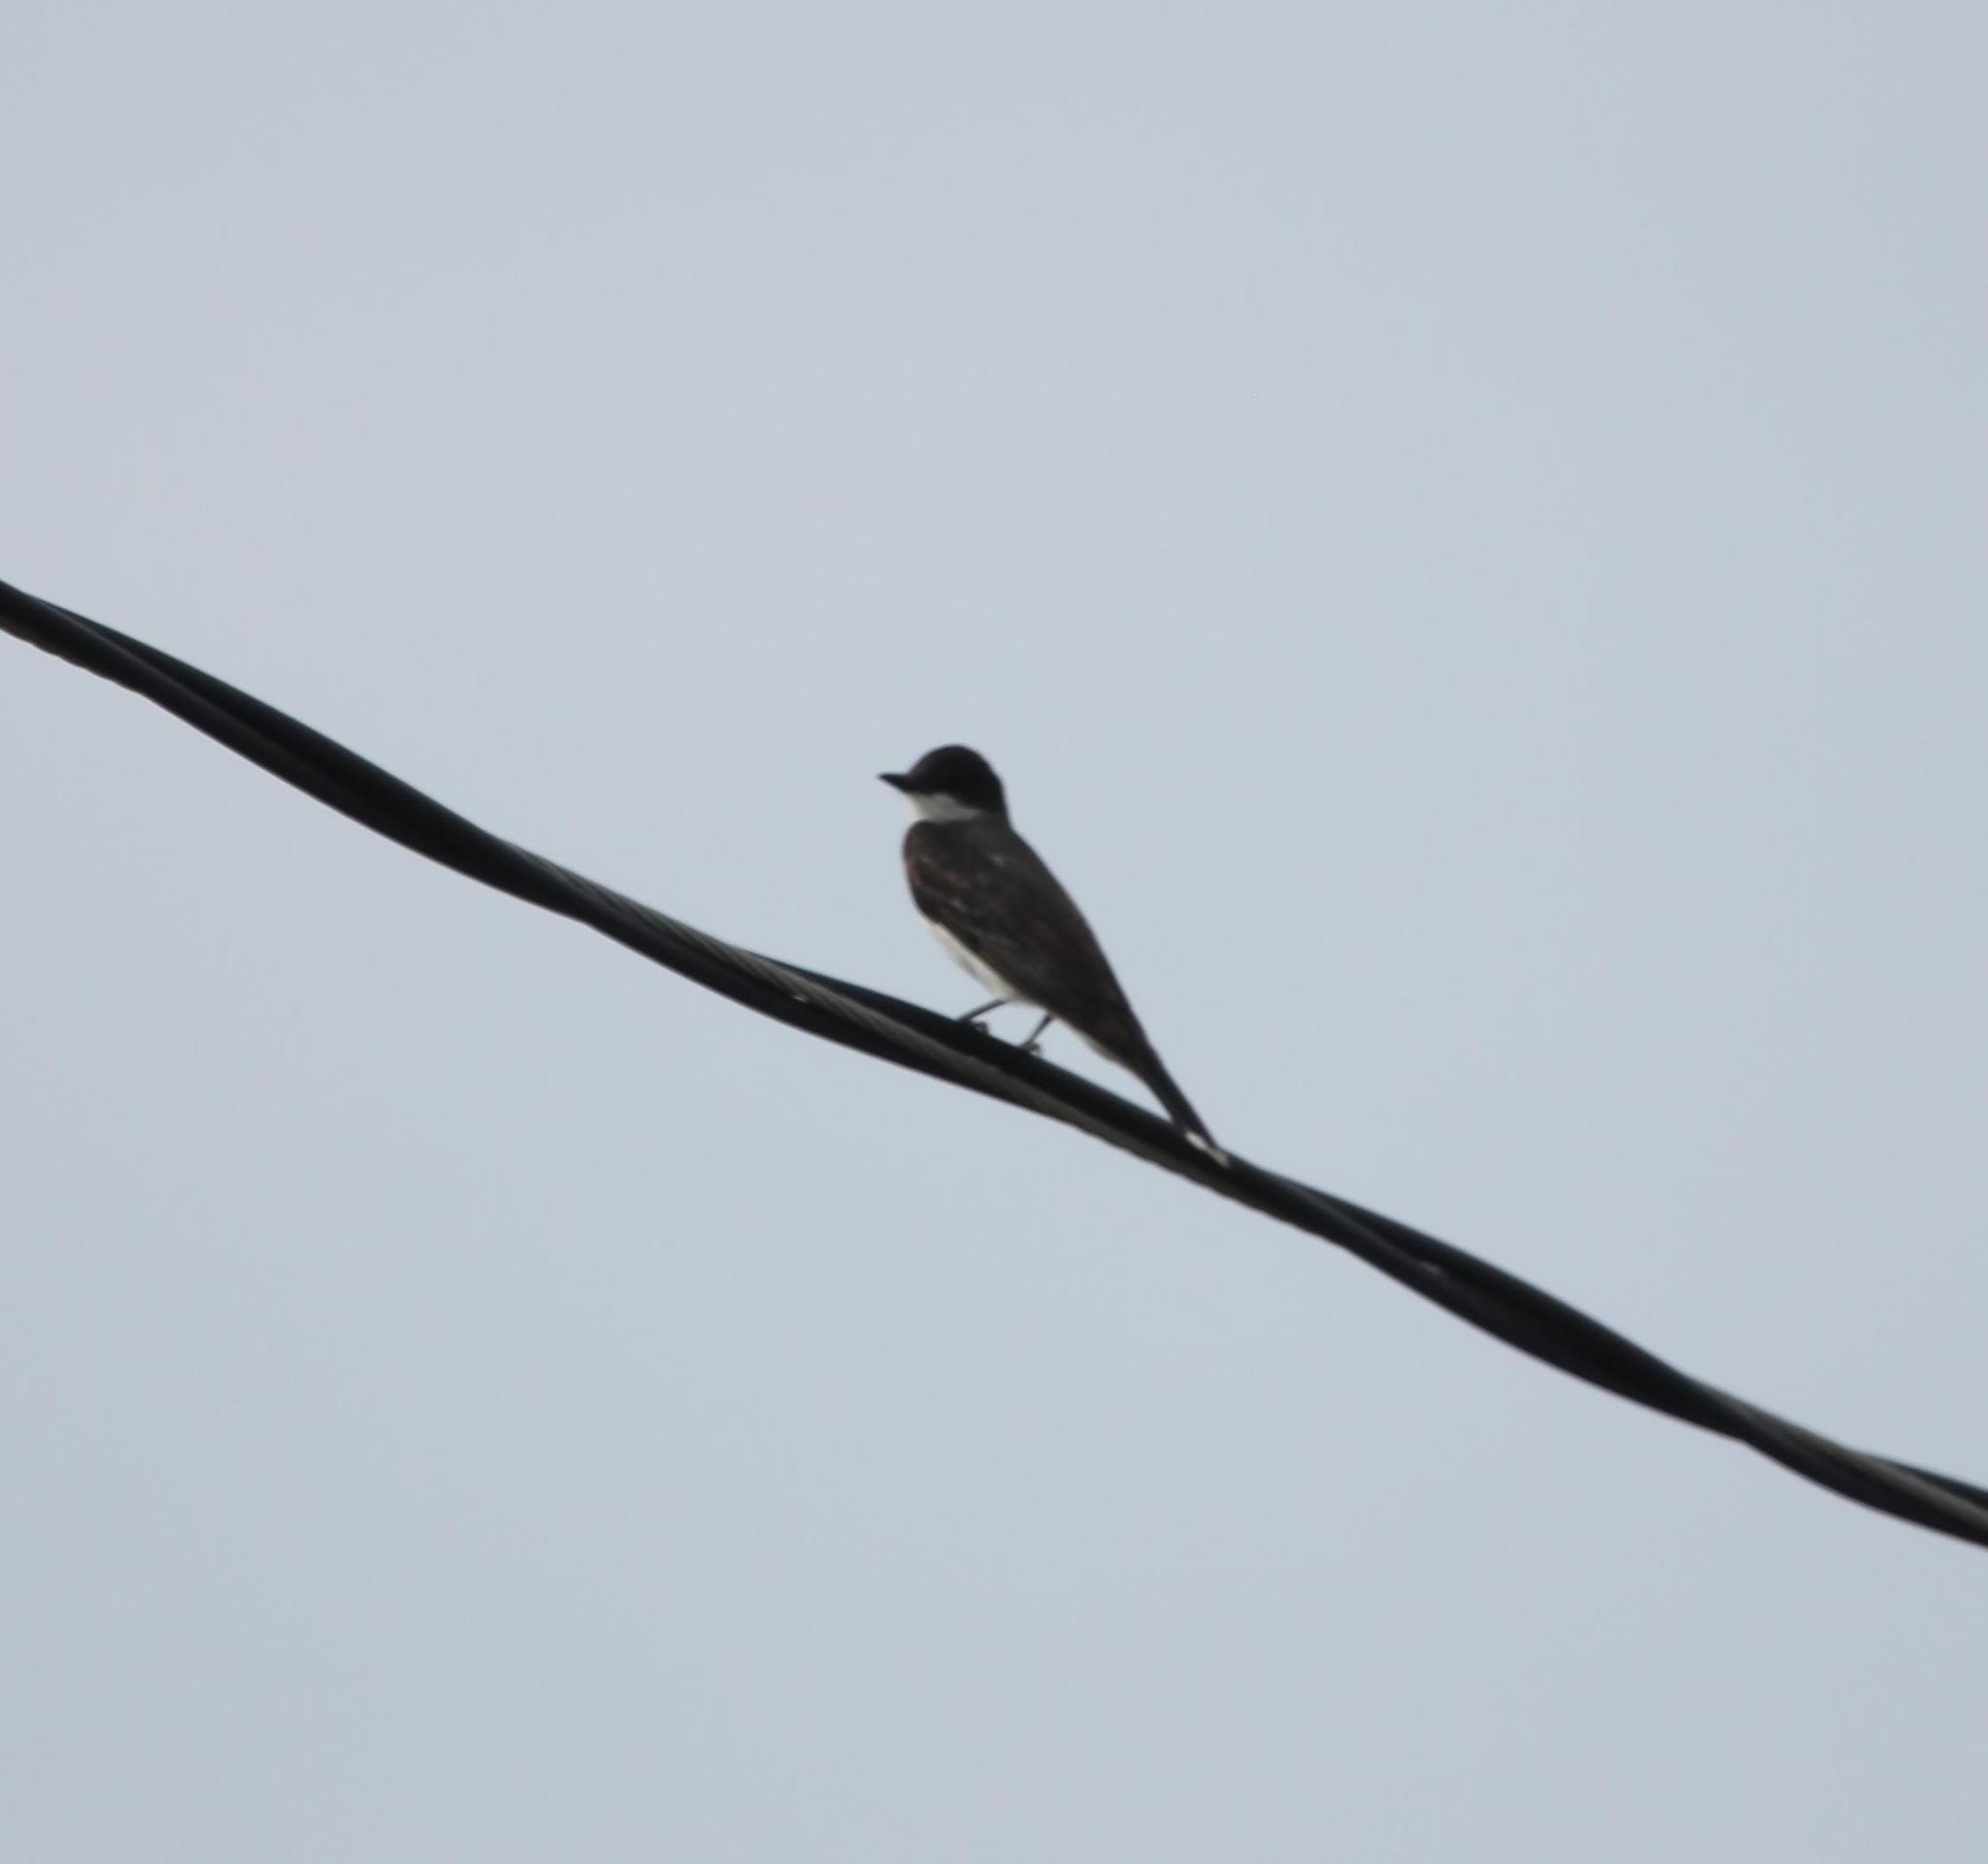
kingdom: Animalia
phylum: Chordata
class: Aves
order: Passeriformes
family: Tyrannidae
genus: Tyrannus
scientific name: Tyrannus tyrannus
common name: Eastern kingbird
